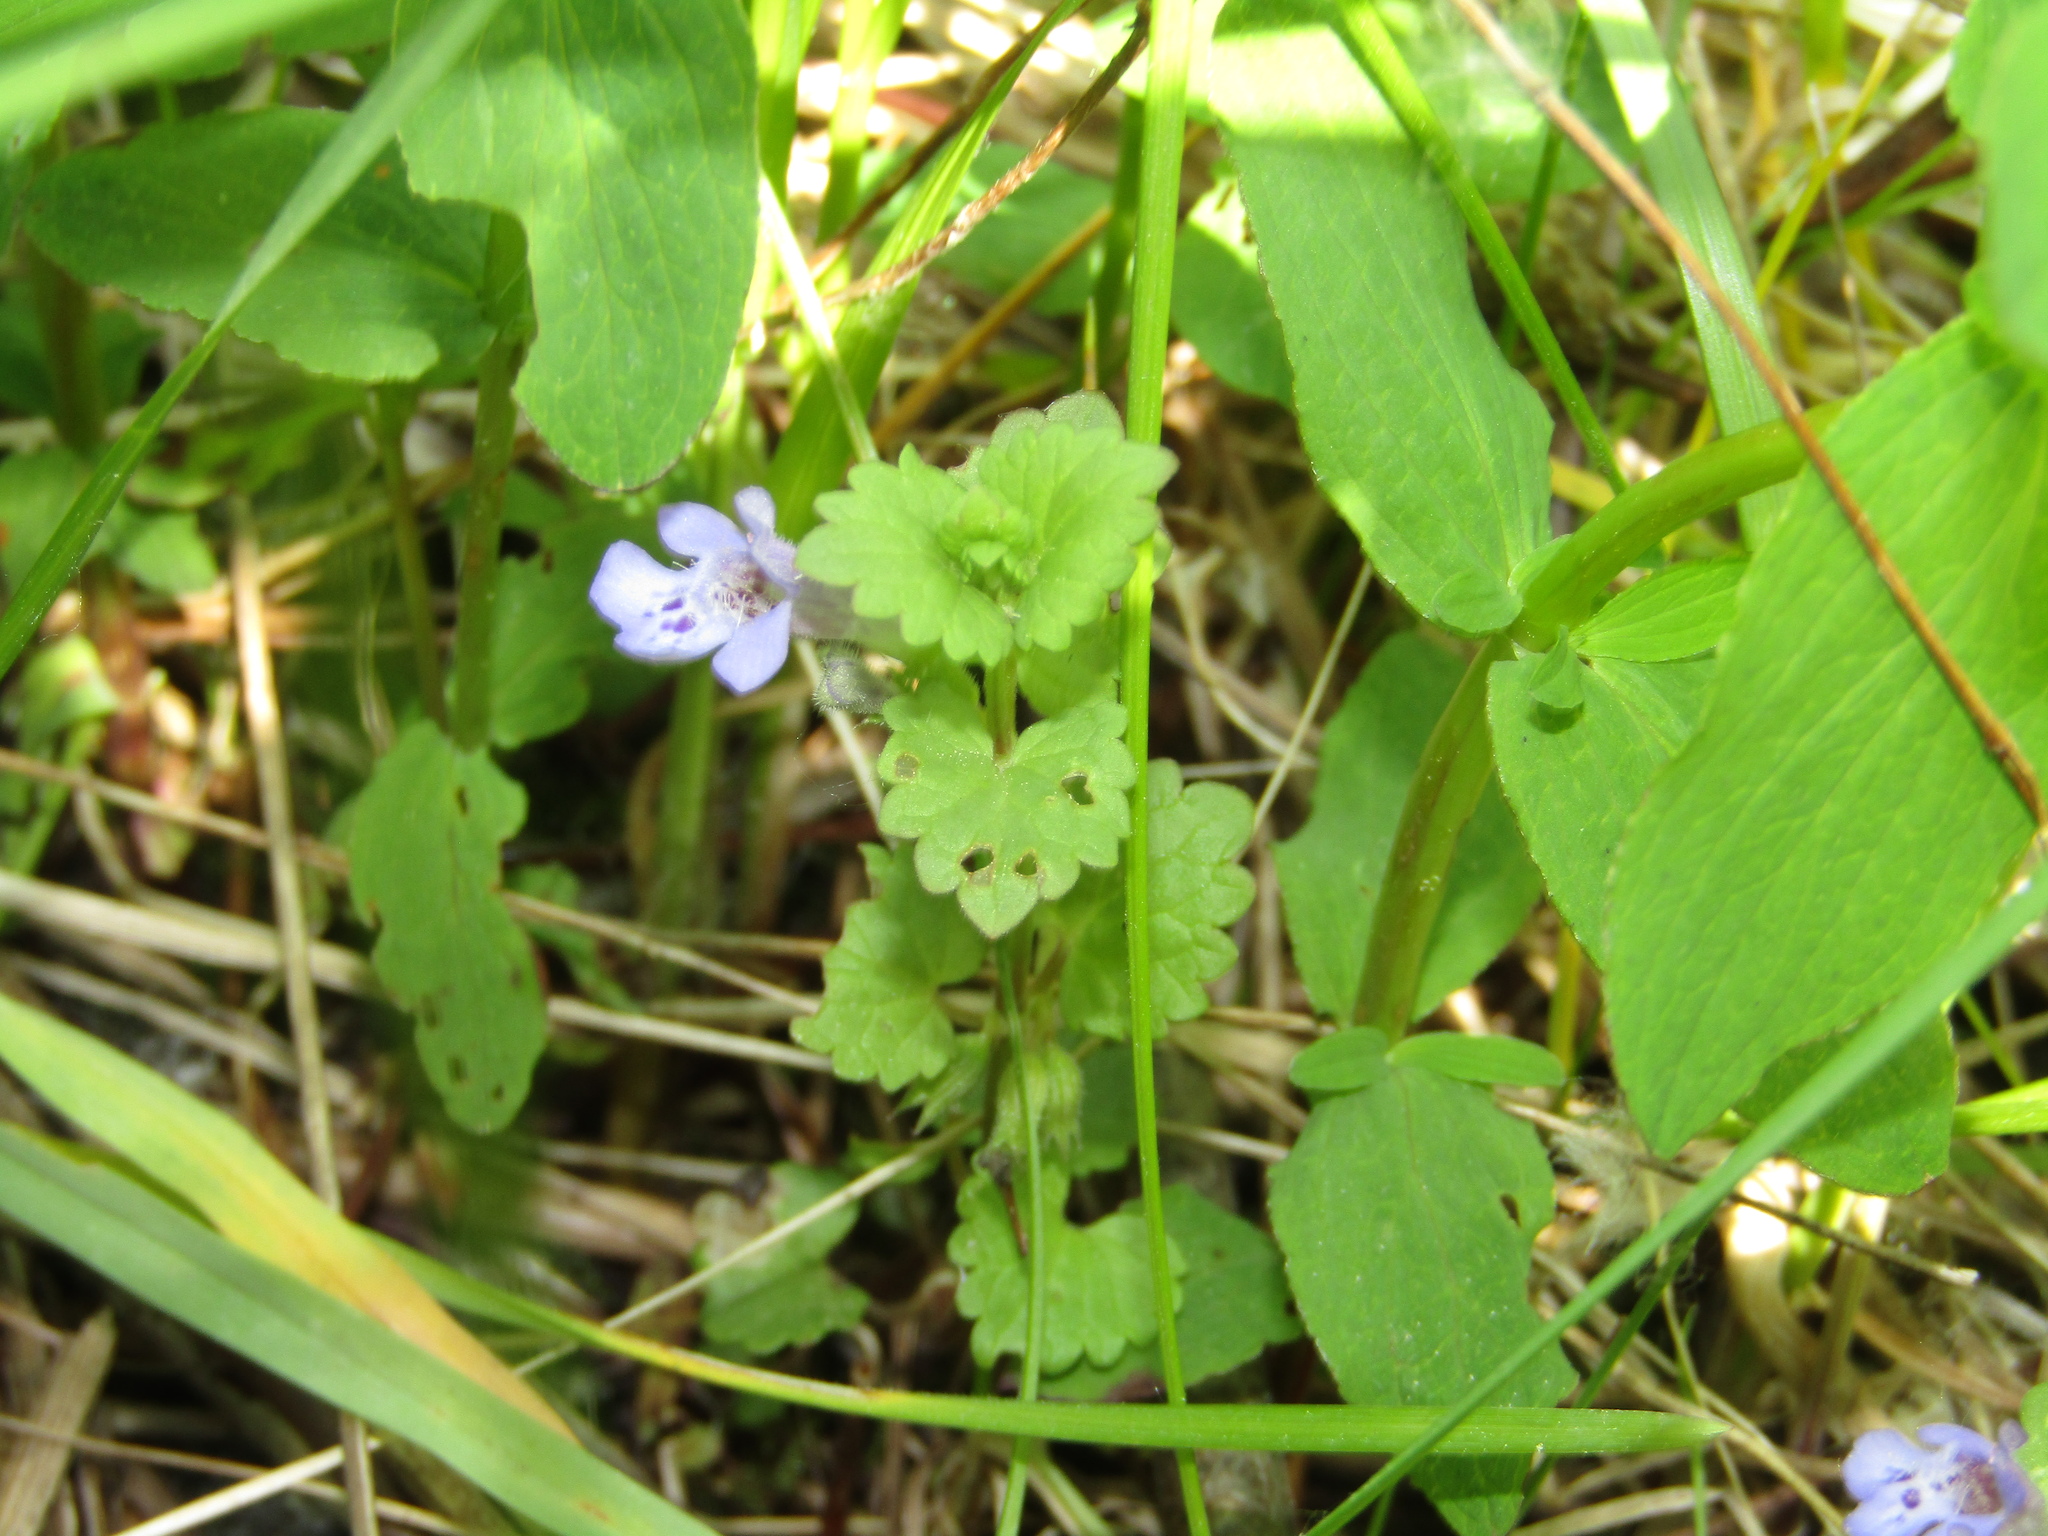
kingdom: Plantae
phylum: Tracheophyta
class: Magnoliopsida
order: Lamiales
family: Lamiaceae
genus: Glechoma
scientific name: Glechoma hederacea
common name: Ground ivy
